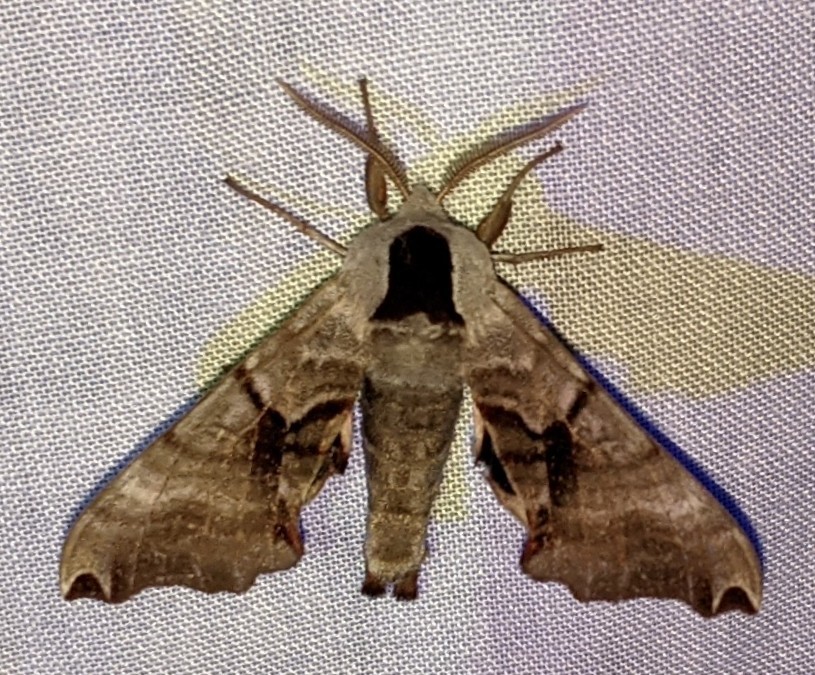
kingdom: Animalia
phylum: Arthropoda
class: Insecta
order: Lepidoptera
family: Sphingidae
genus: Smerinthus
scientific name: Smerinthus jamaicensis
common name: Twin spotted sphinx
